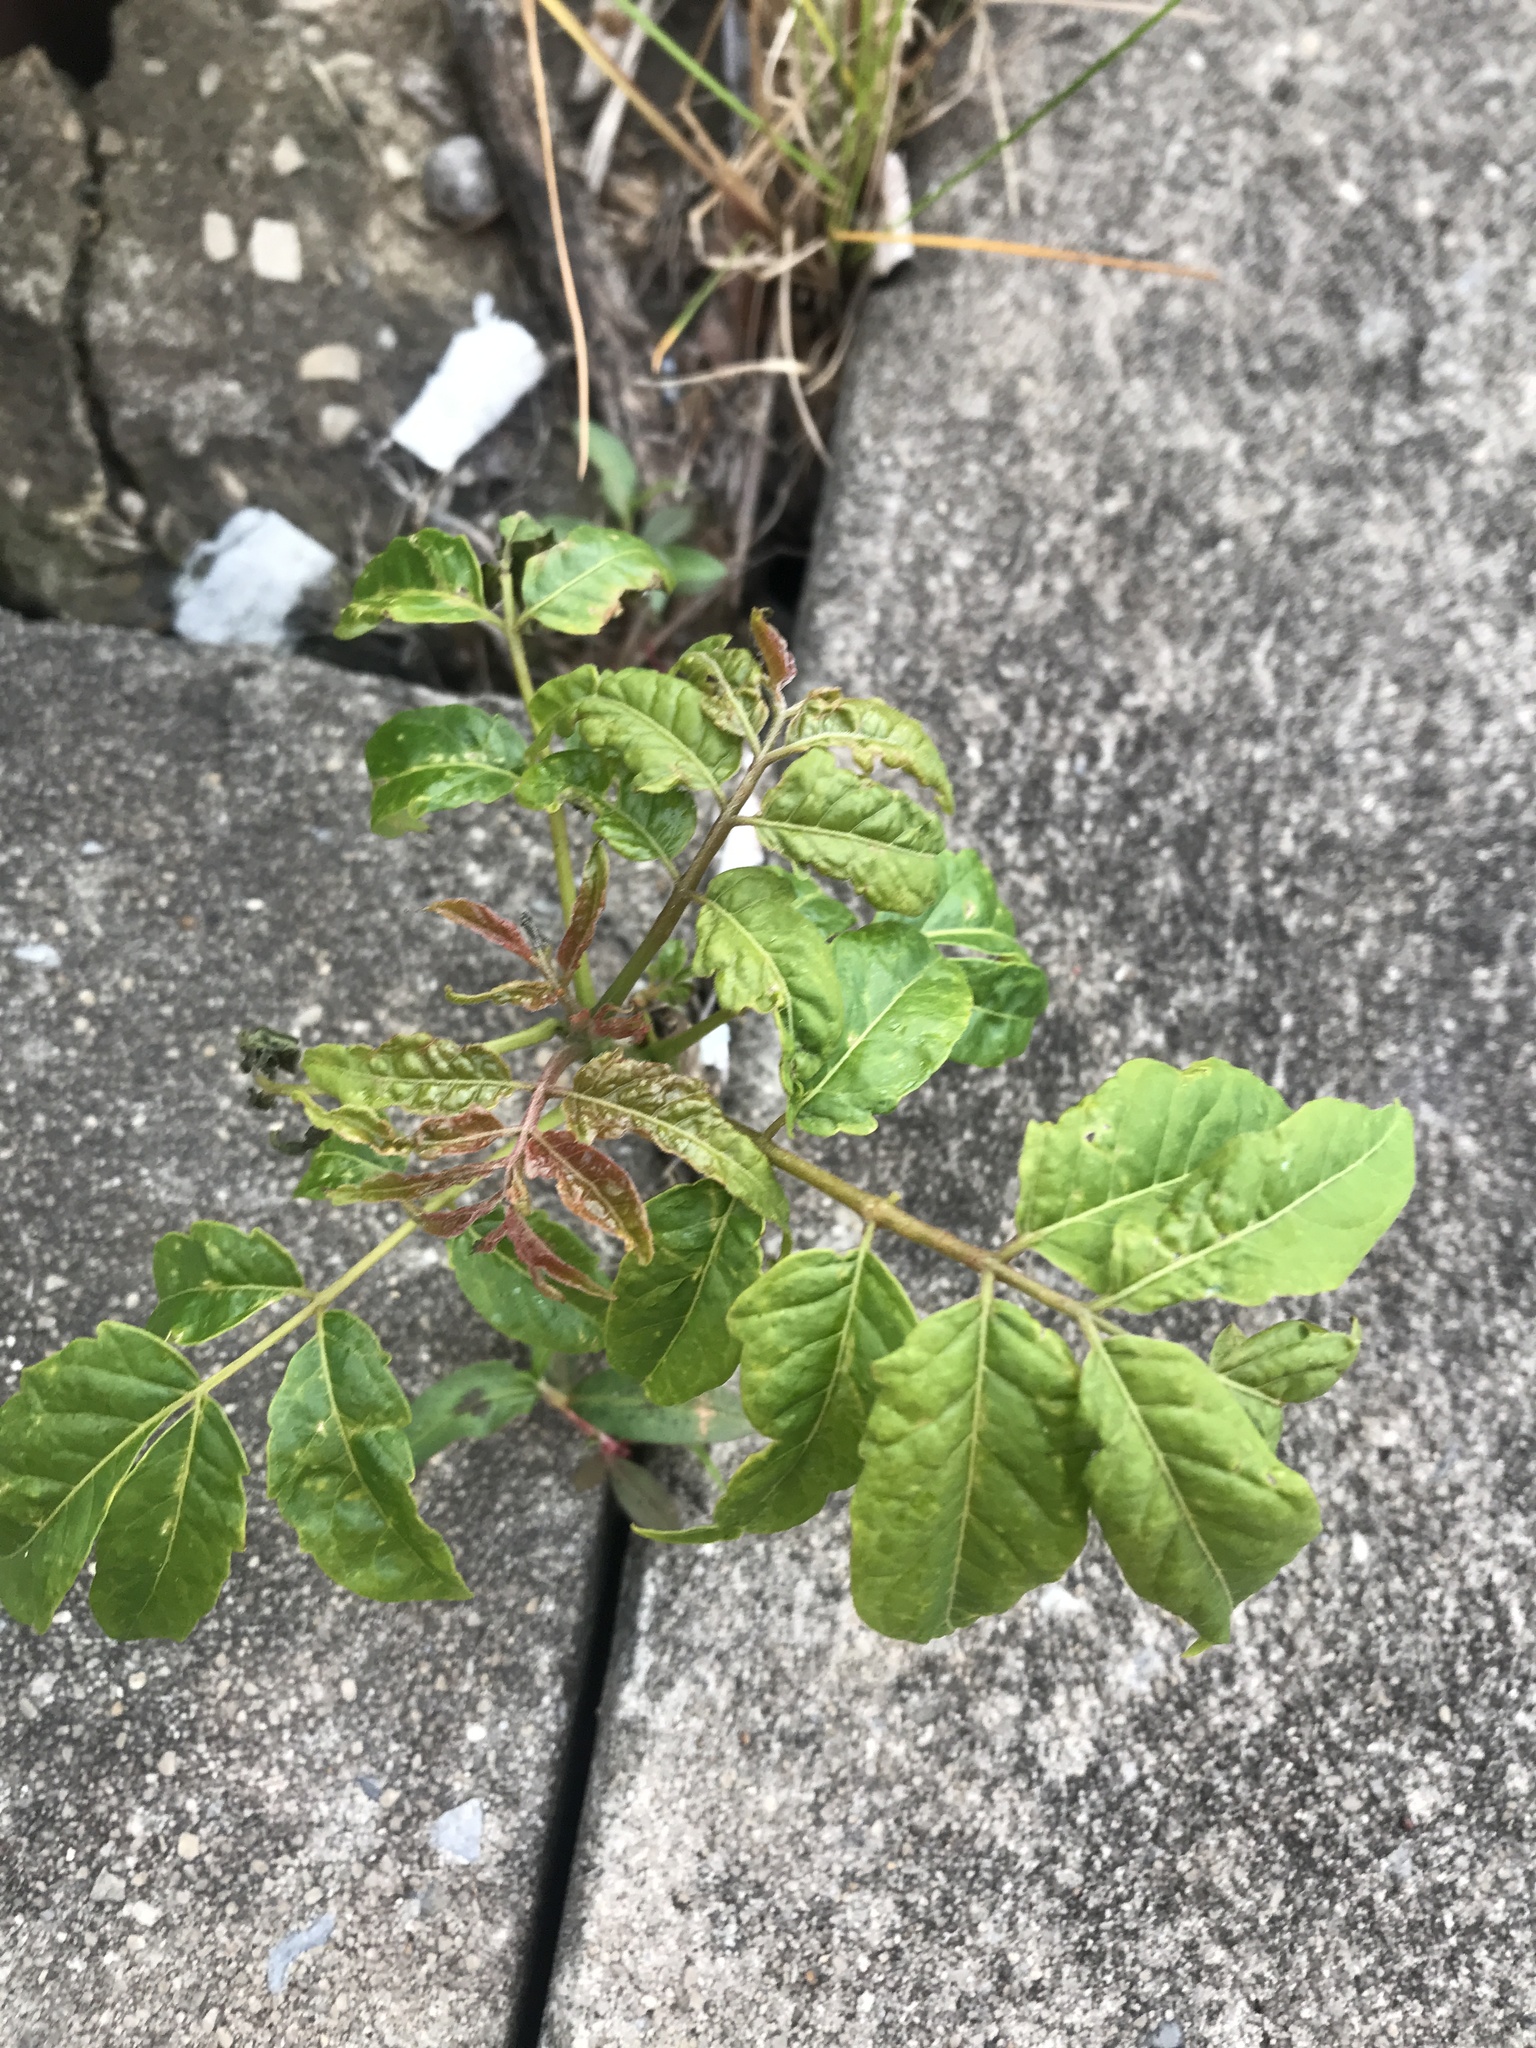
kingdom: Plantae
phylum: Tracheophyta
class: Magnoliopsida
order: Sapindales
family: Simaroubaceae
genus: Ailanthus
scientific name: Ailanthus altissima
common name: Tree-of-heaven
